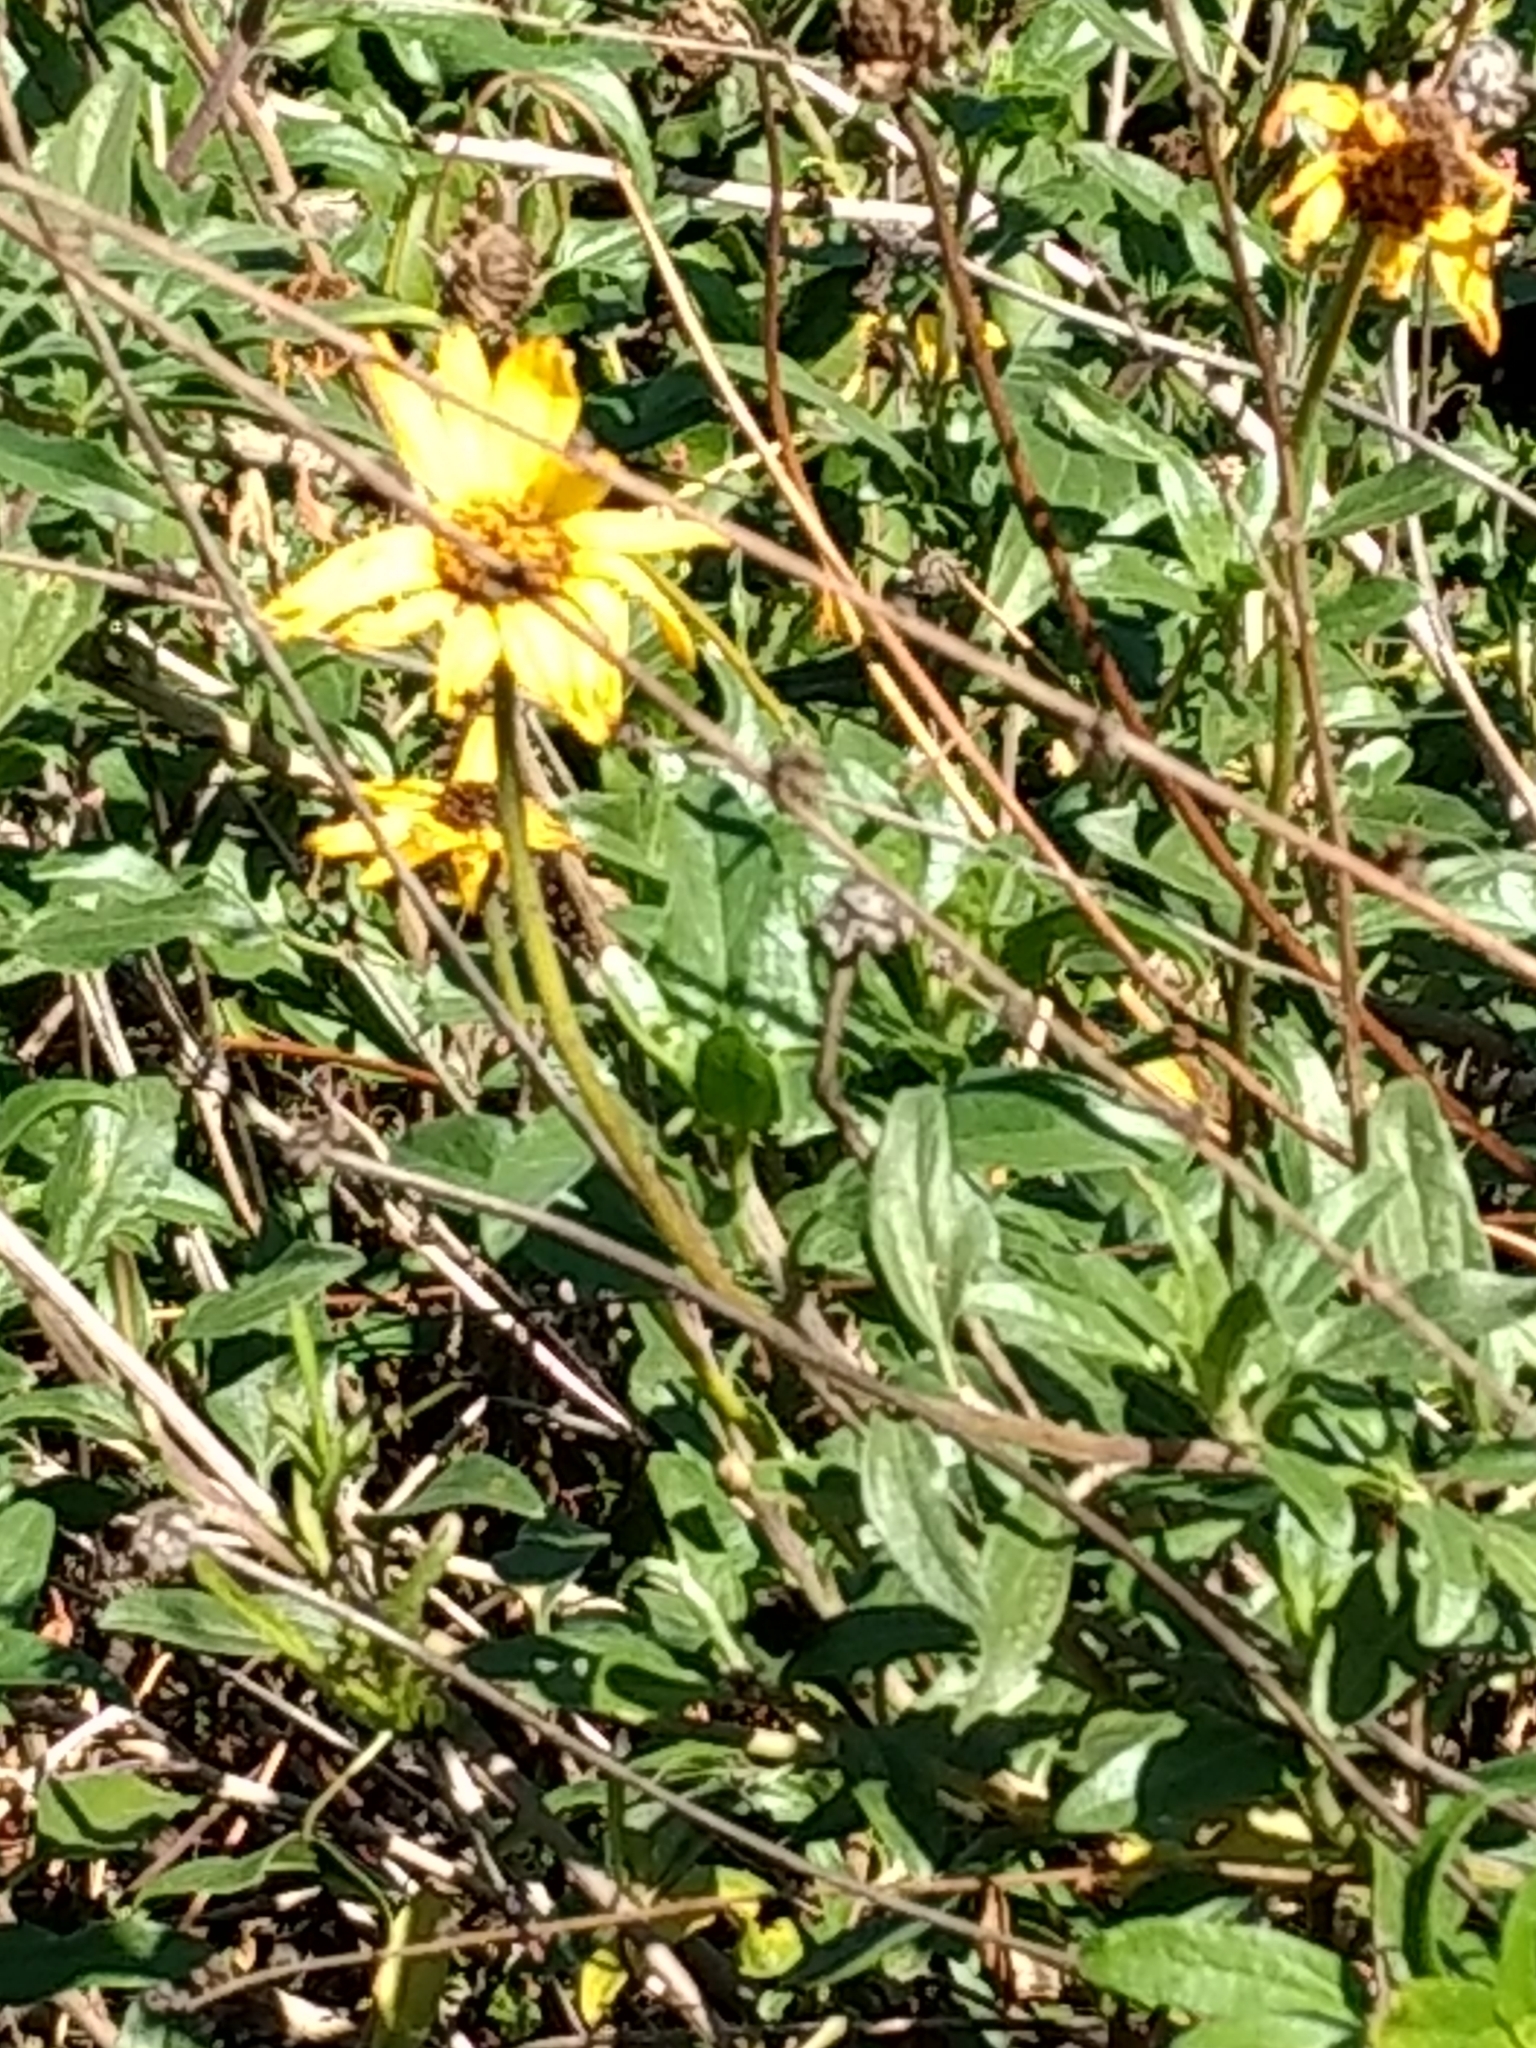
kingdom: Plantae
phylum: Tracheophyta
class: Magnoliopsida
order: Asterales
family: Asteraceae
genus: Encelia
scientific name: Encelia californica
